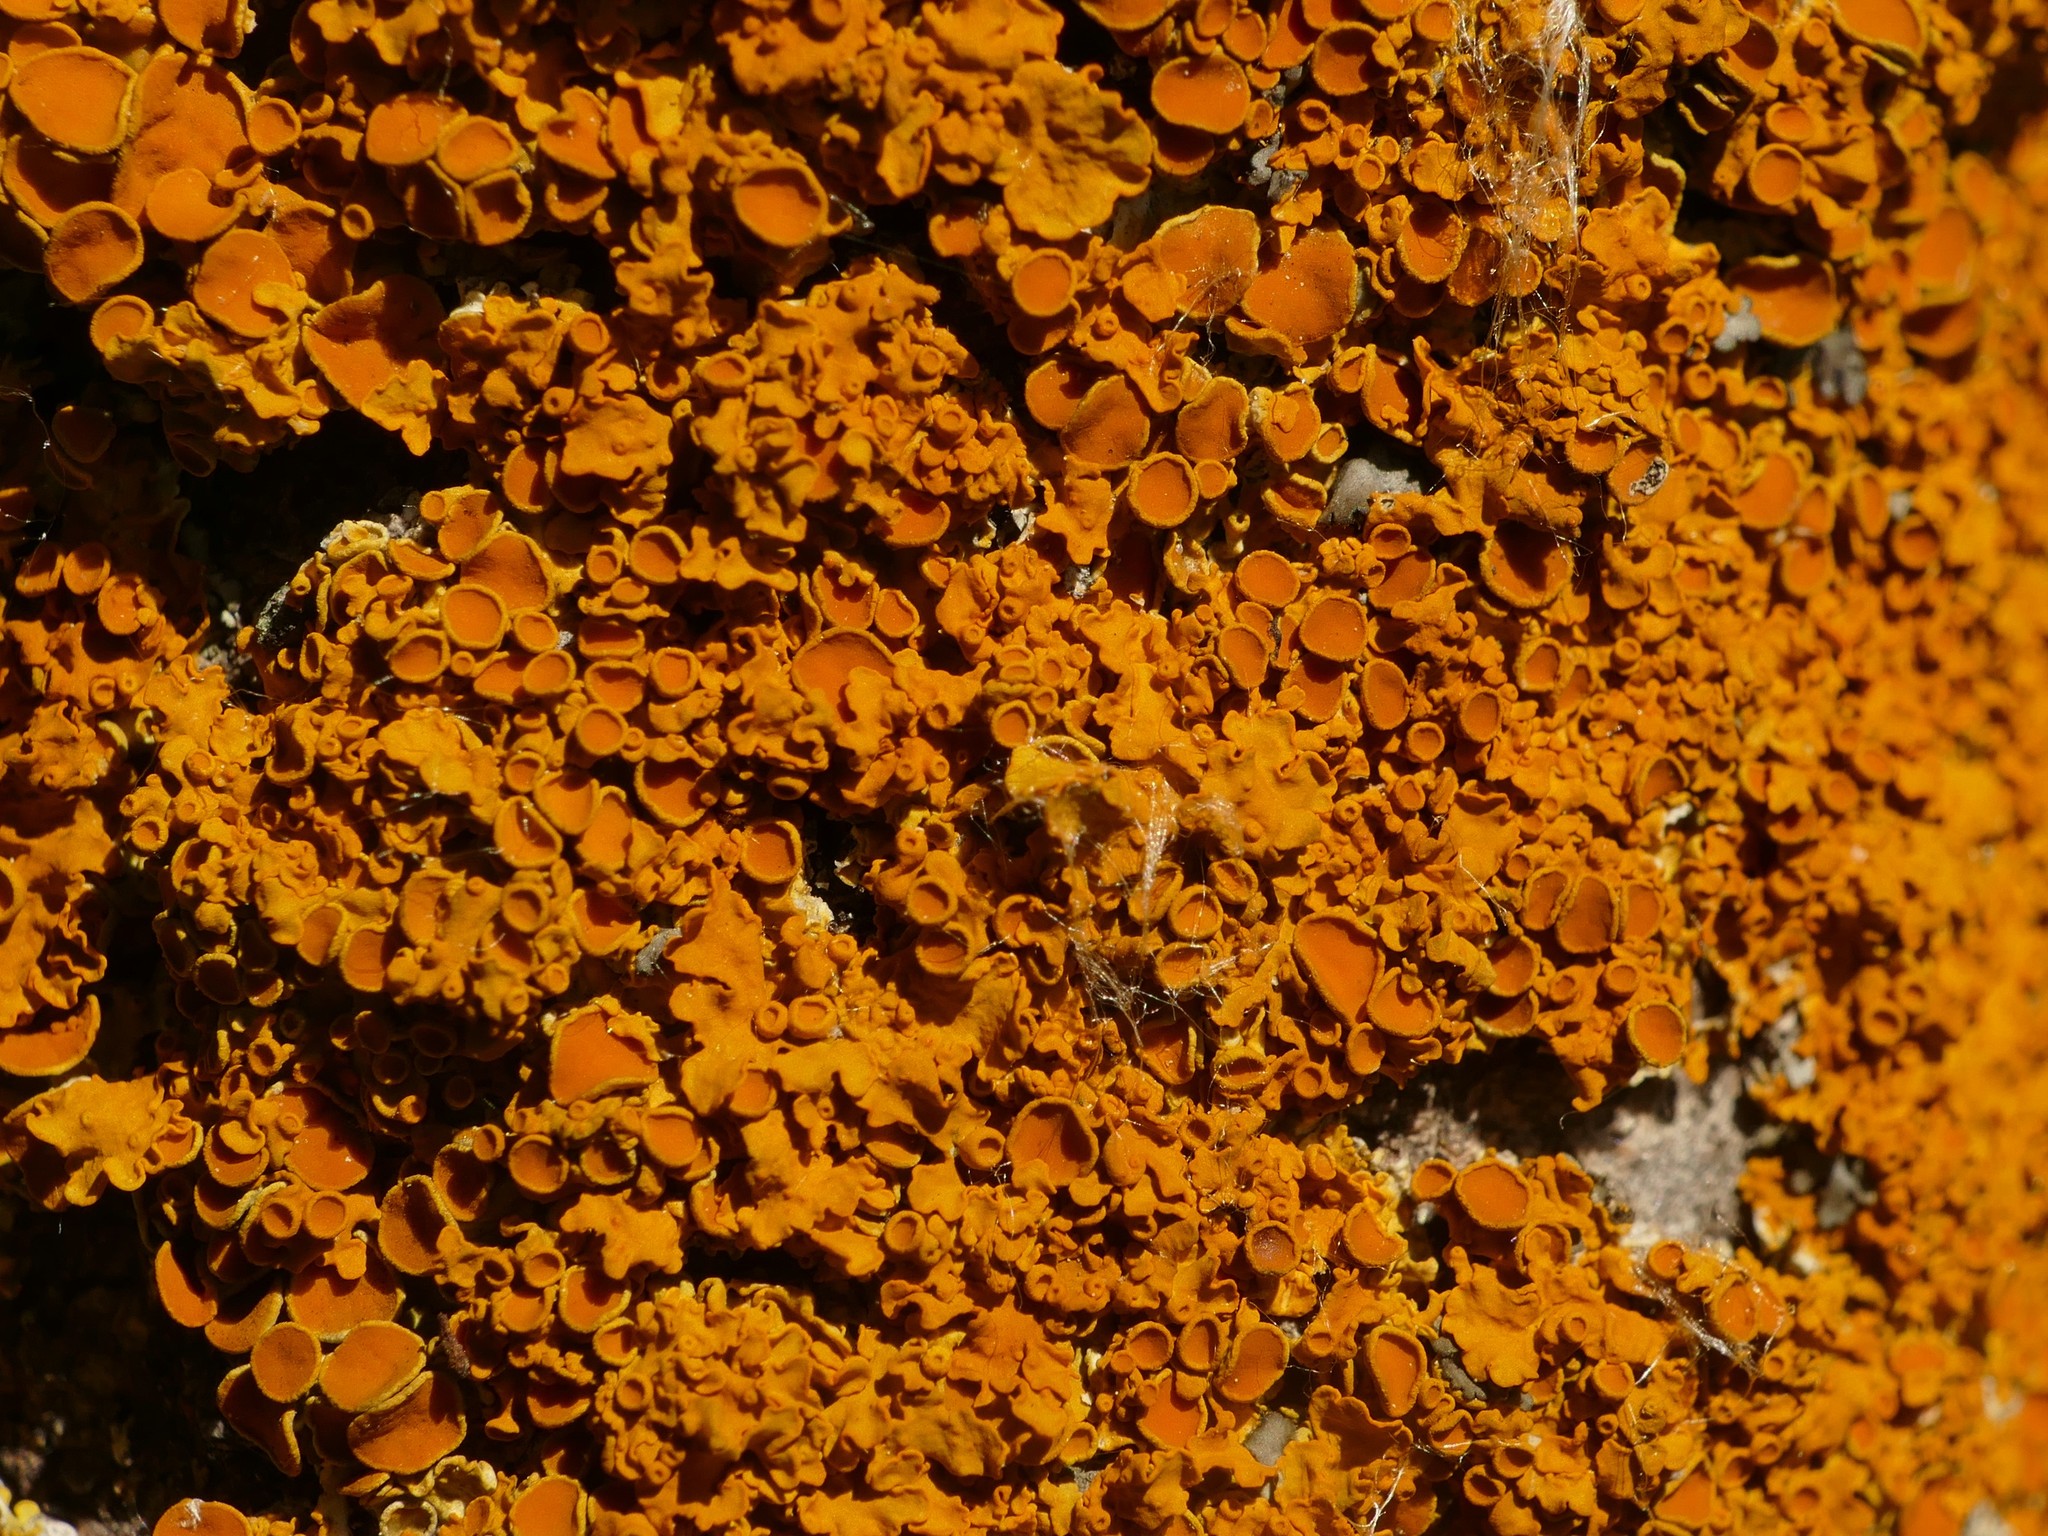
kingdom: Fungi
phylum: Ascomycota
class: Lecanoromycetes
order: Teloschistales
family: Teloschistaceae
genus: Xanthoria
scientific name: Xanthoria parietina
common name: Common orange lichen
